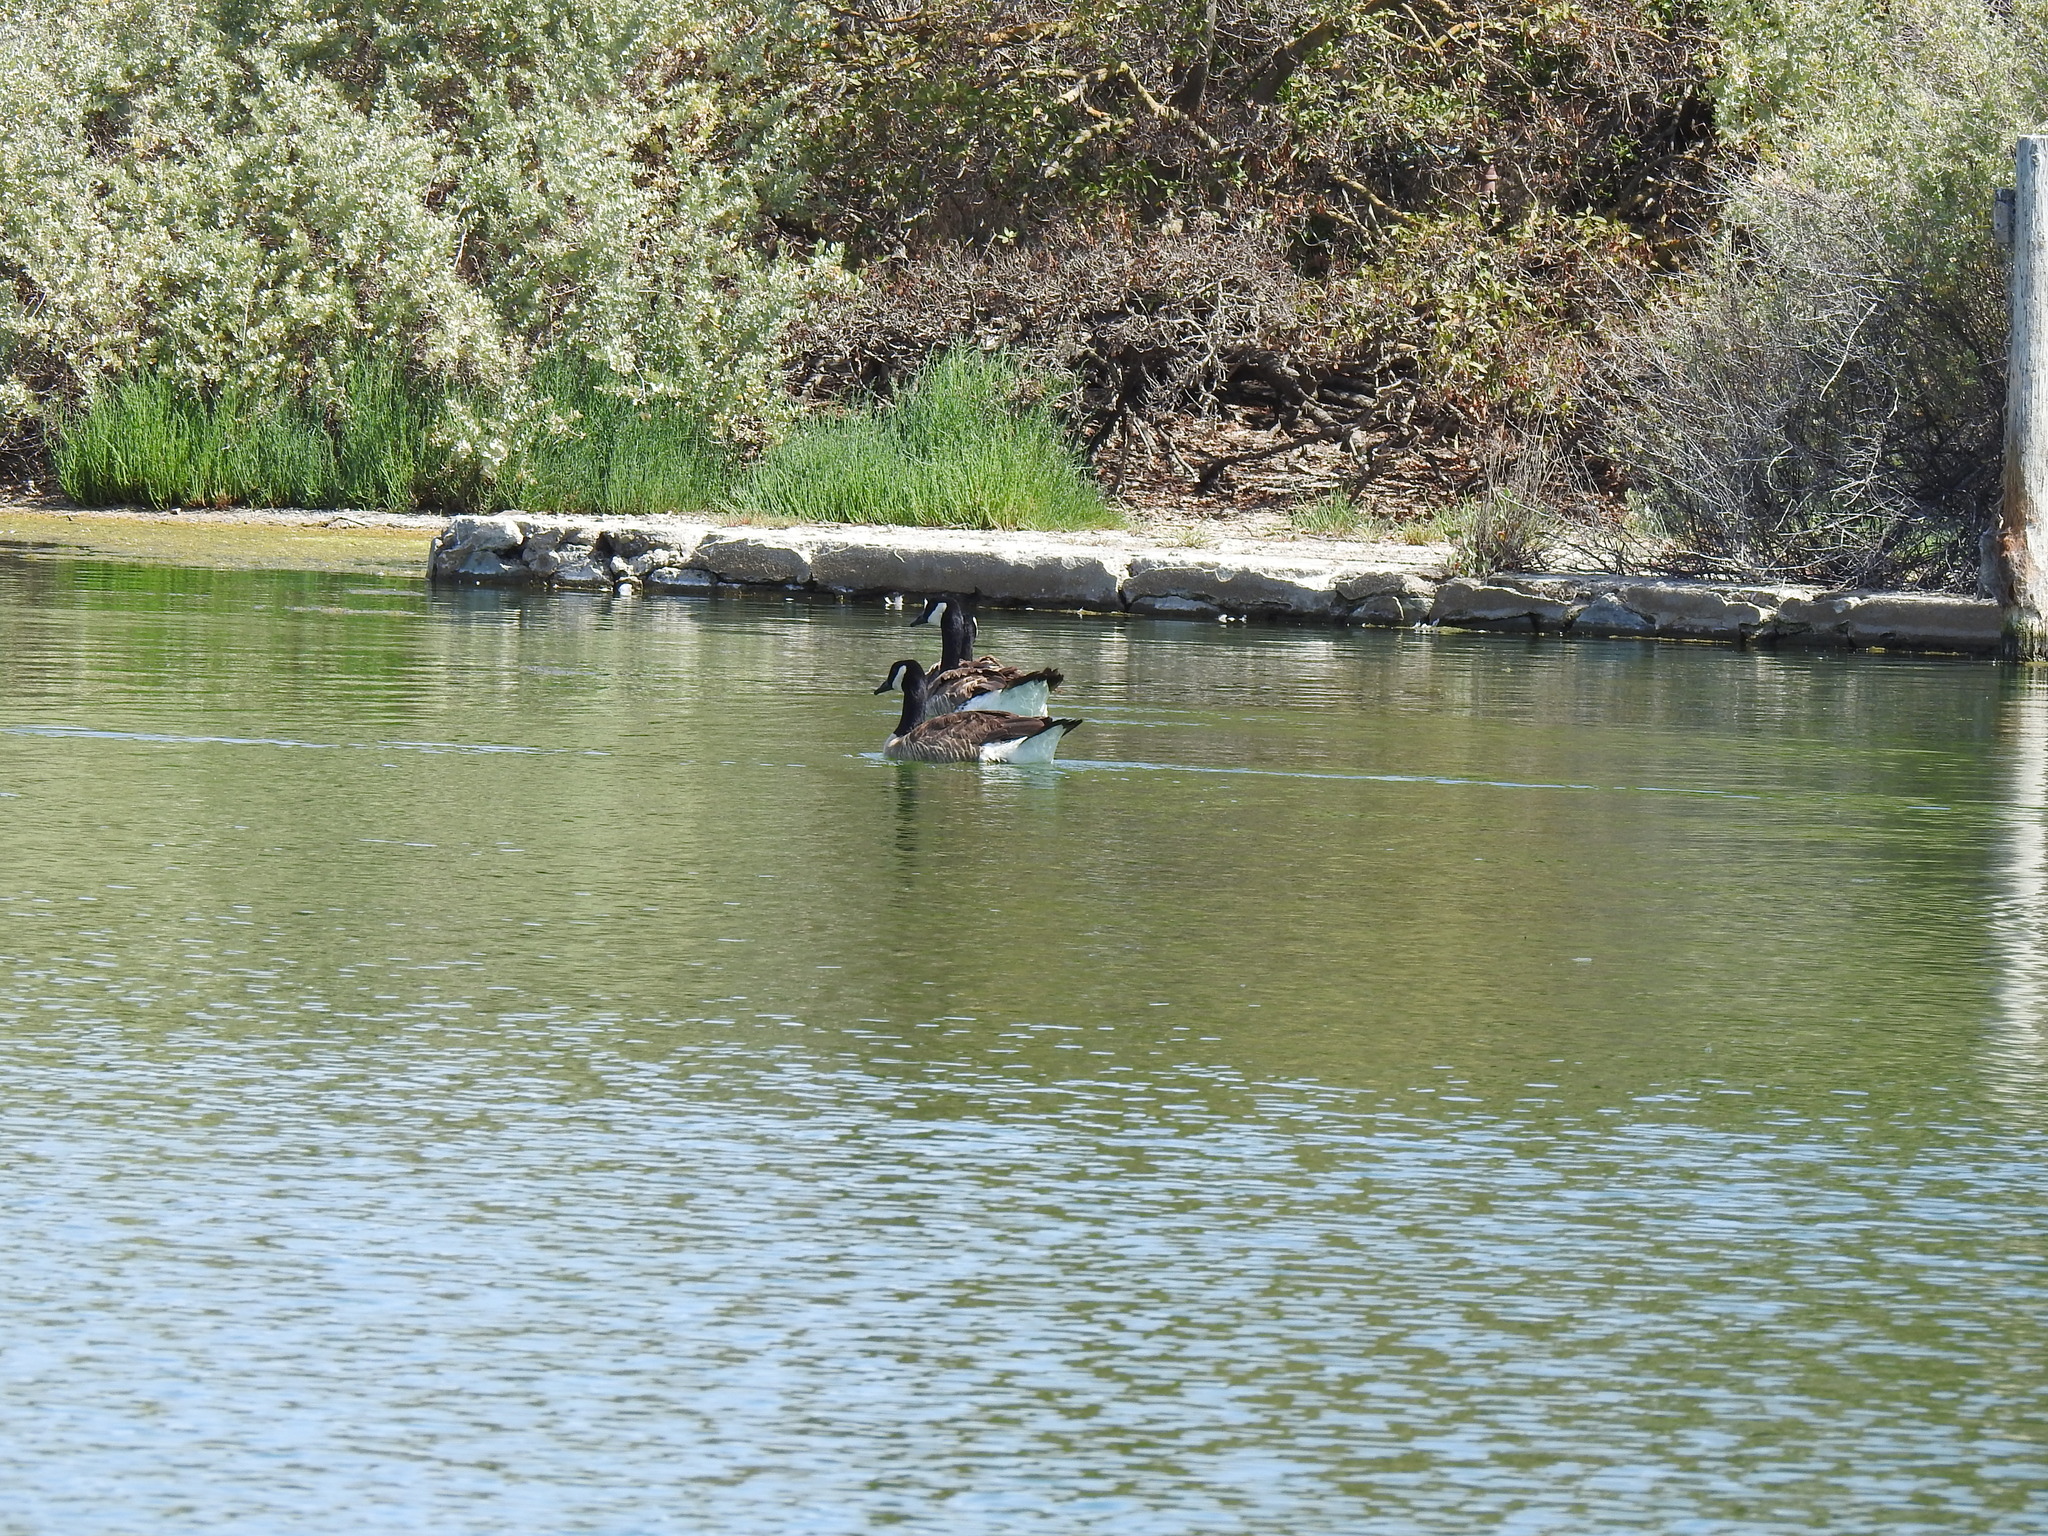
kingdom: Animalia
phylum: Chordata
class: Aves
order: Anseriformes
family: Anatidae
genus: Branta
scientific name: Branta canadensis
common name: Canada goose
